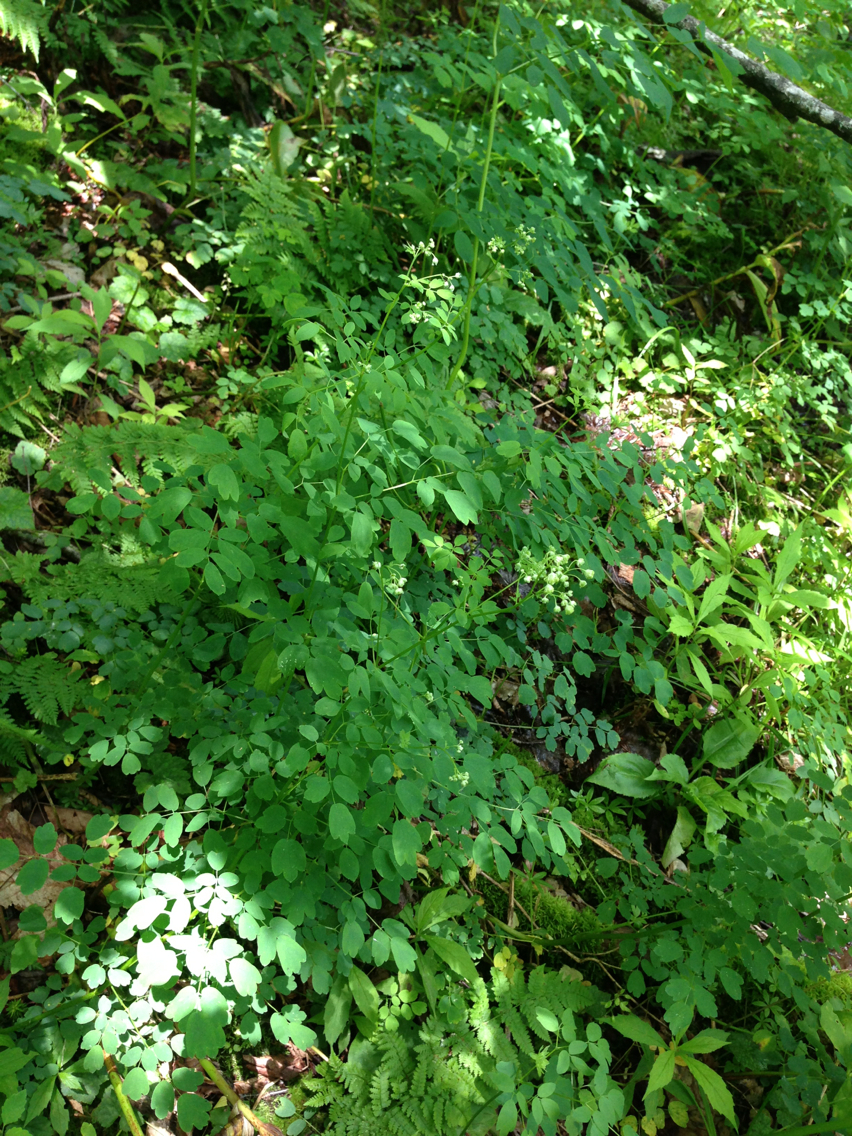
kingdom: Plantae
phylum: Tracheophyta
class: Magnoliopsida
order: Asterales
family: Asteraceae
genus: Oclemena
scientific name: Oclemena acuminata
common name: Mountain aster
